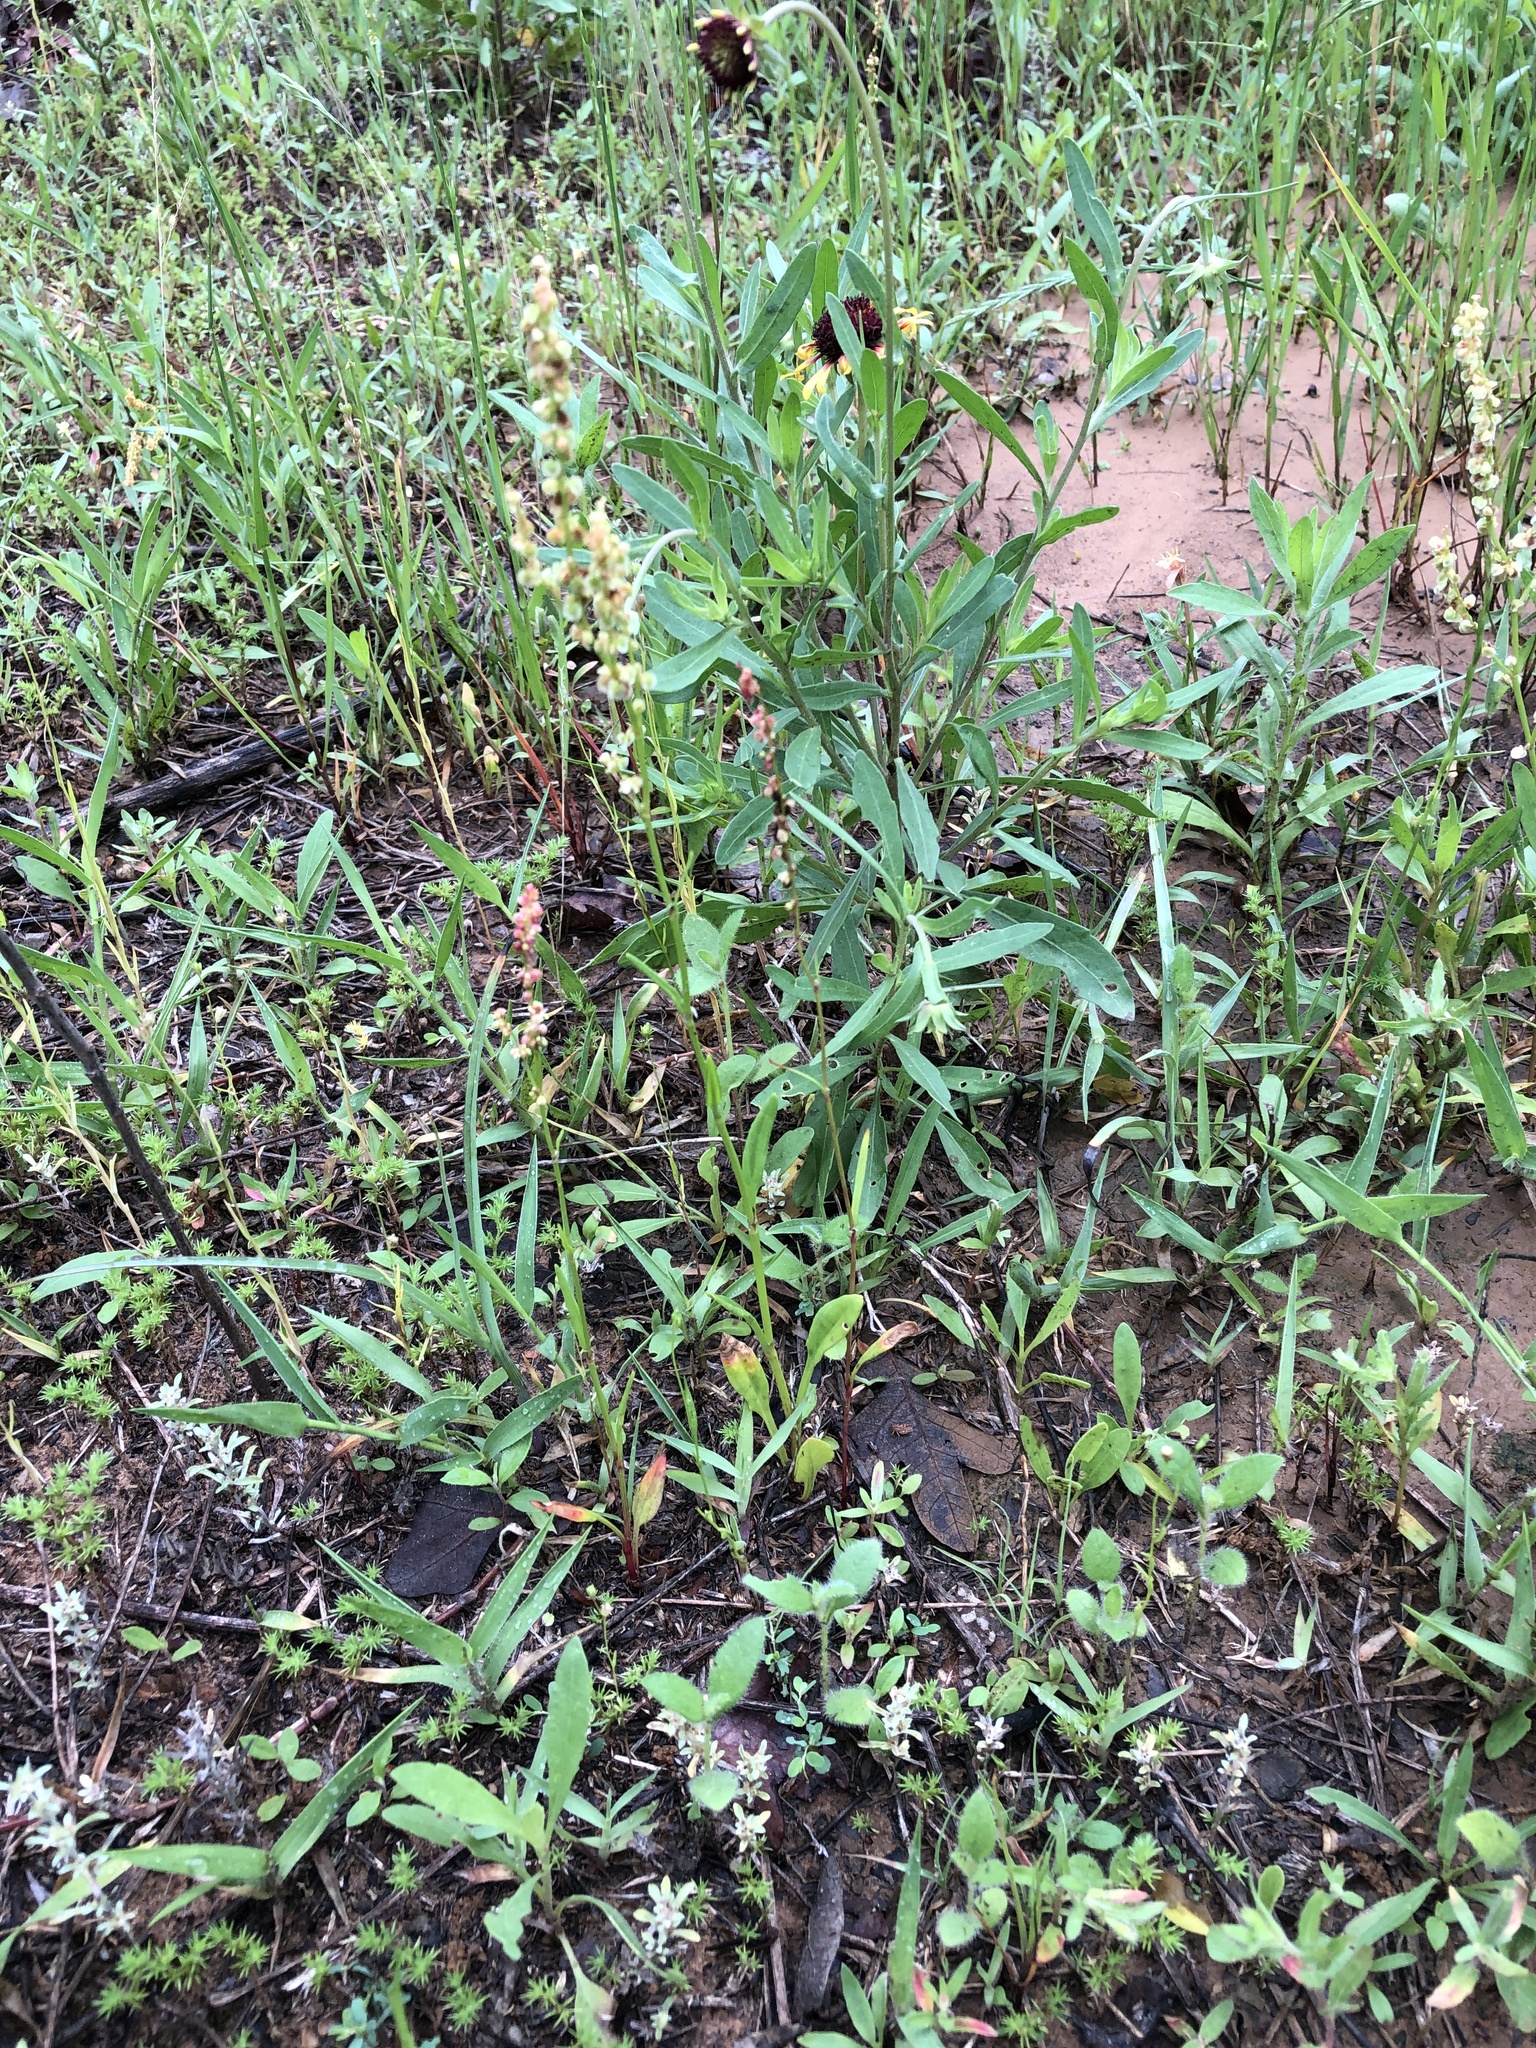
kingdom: Plantae
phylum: Tracheophyta
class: Magnoliopsida
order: Caryophyllales
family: Polygonaceae
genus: Rumex
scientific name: Rumex hastatulus
